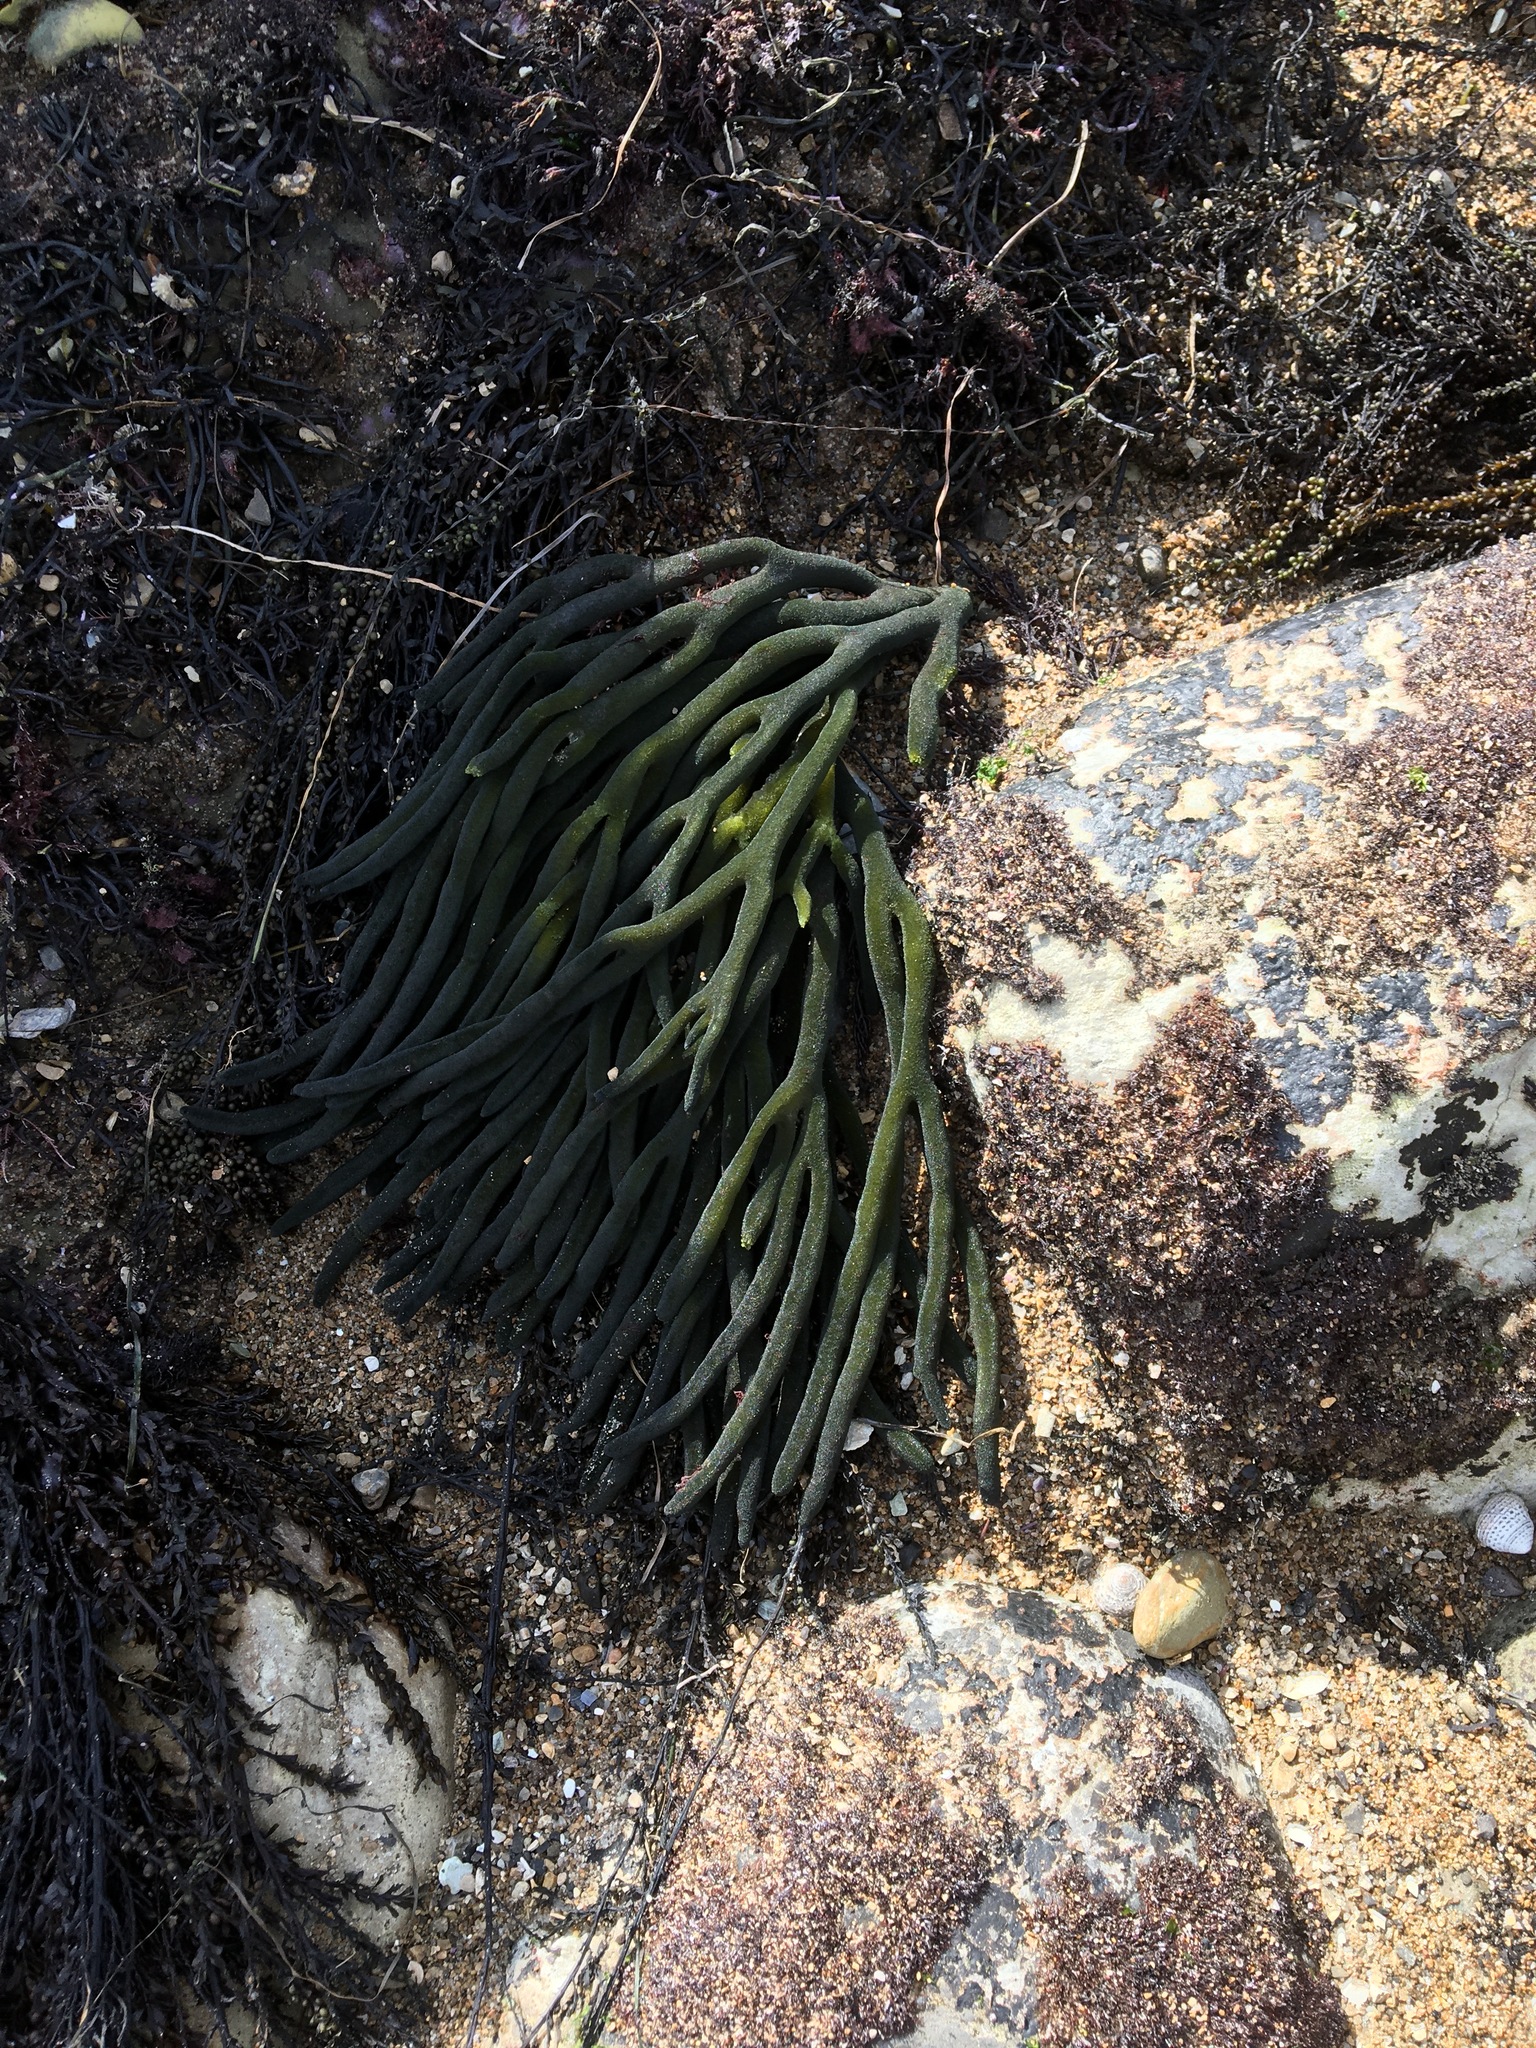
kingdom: Plantae
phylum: Chlorophyta
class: Ulvophyceae
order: Bryopsidales
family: Codiaceae
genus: Codium
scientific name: Codium fragile
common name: Dead man's fingers
